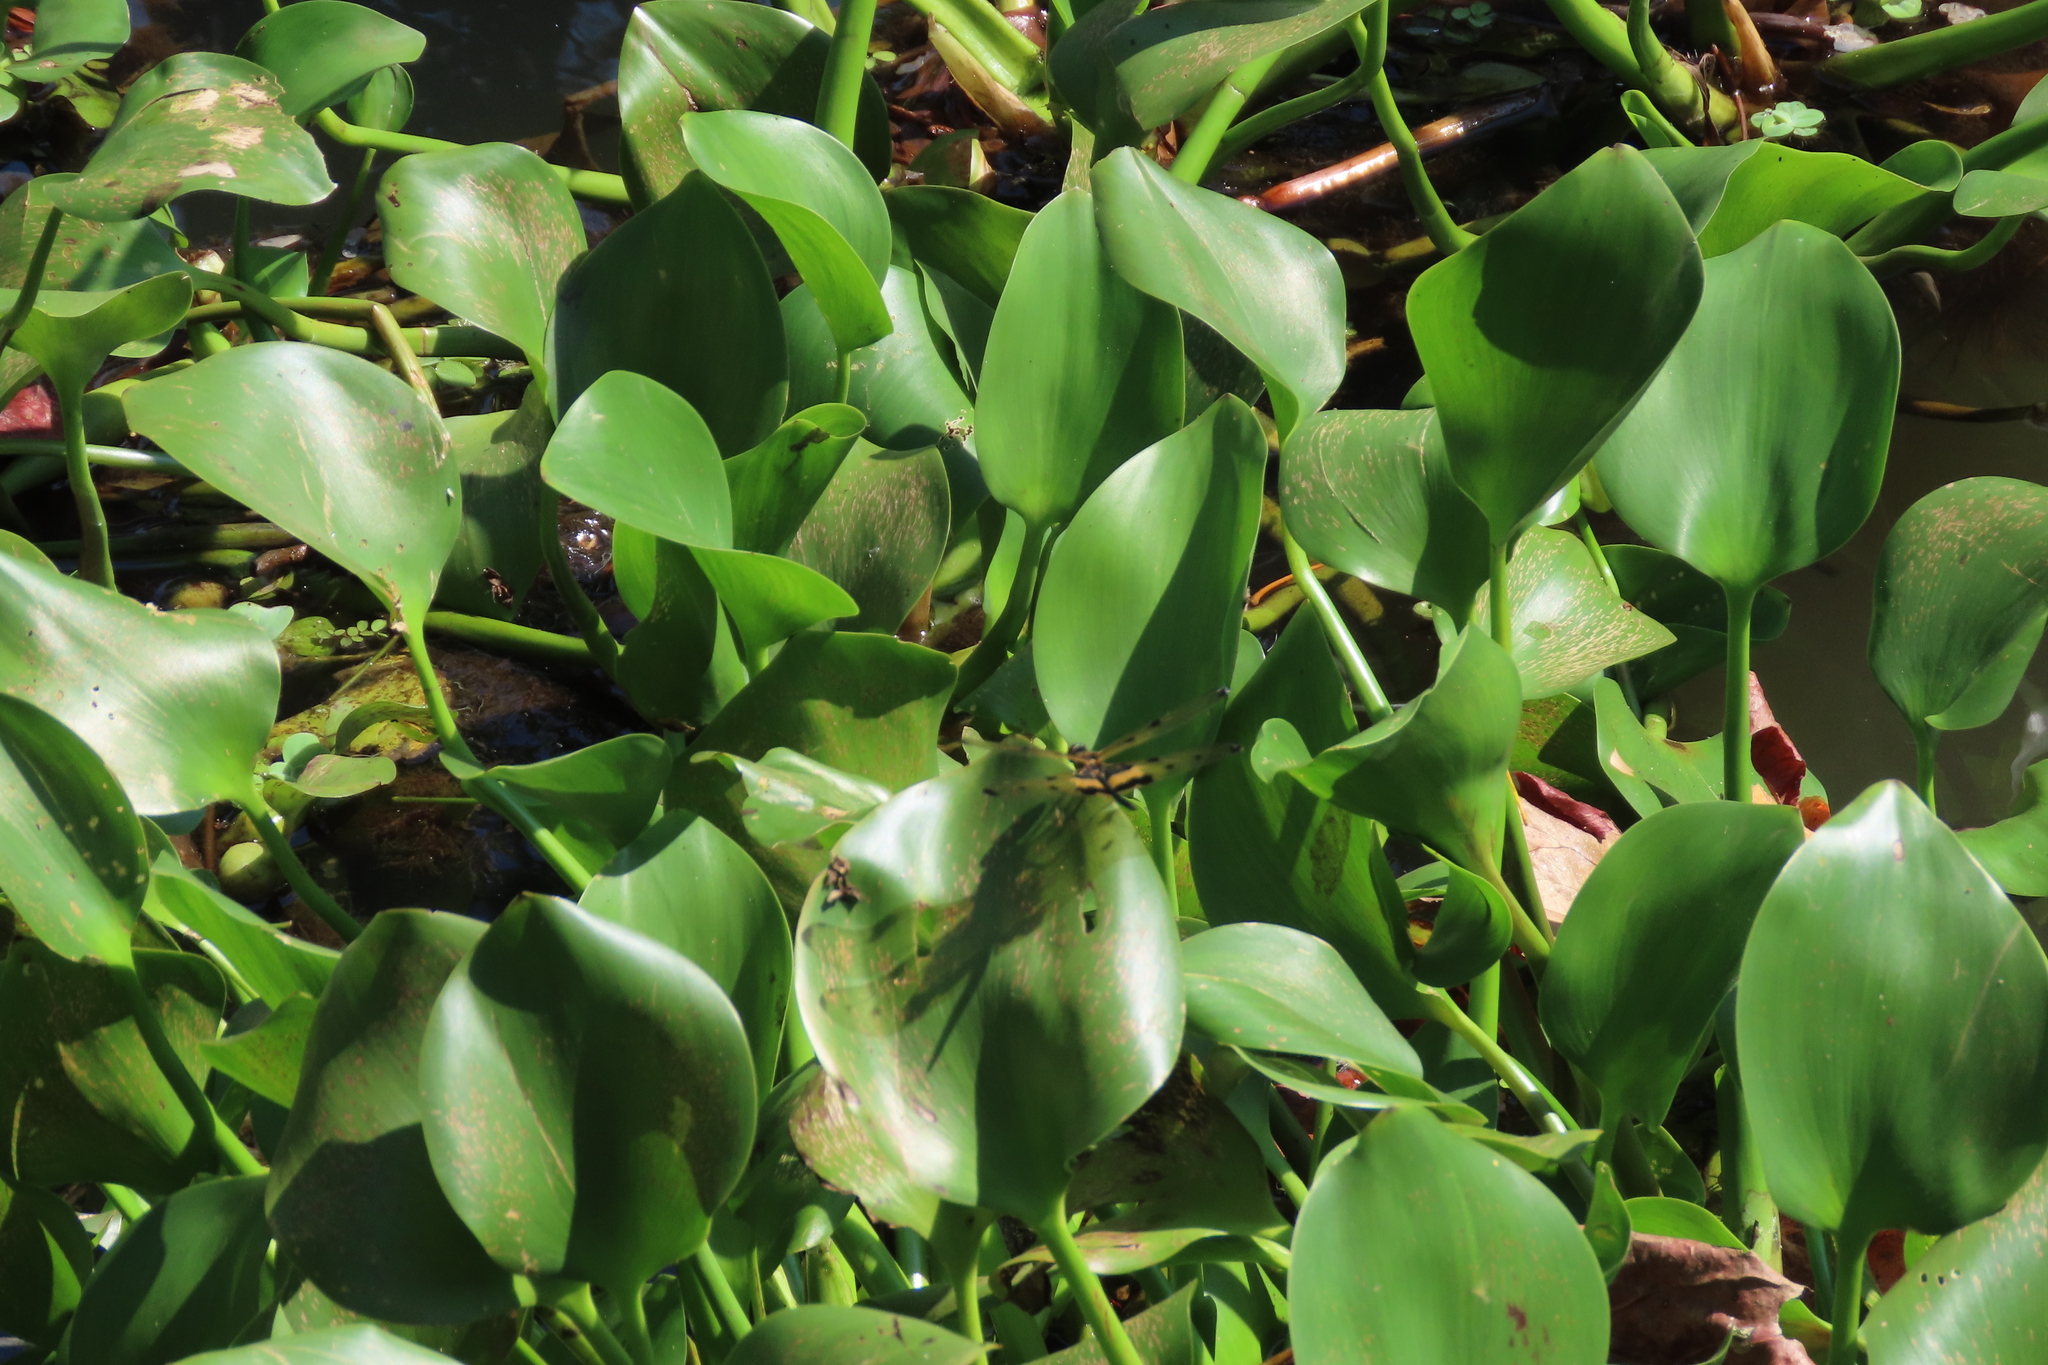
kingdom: Animalia
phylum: Arthropoda
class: Insecta
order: Odonata
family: Libellulidae
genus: Rhyothemis
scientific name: Rhyothemis variegata
